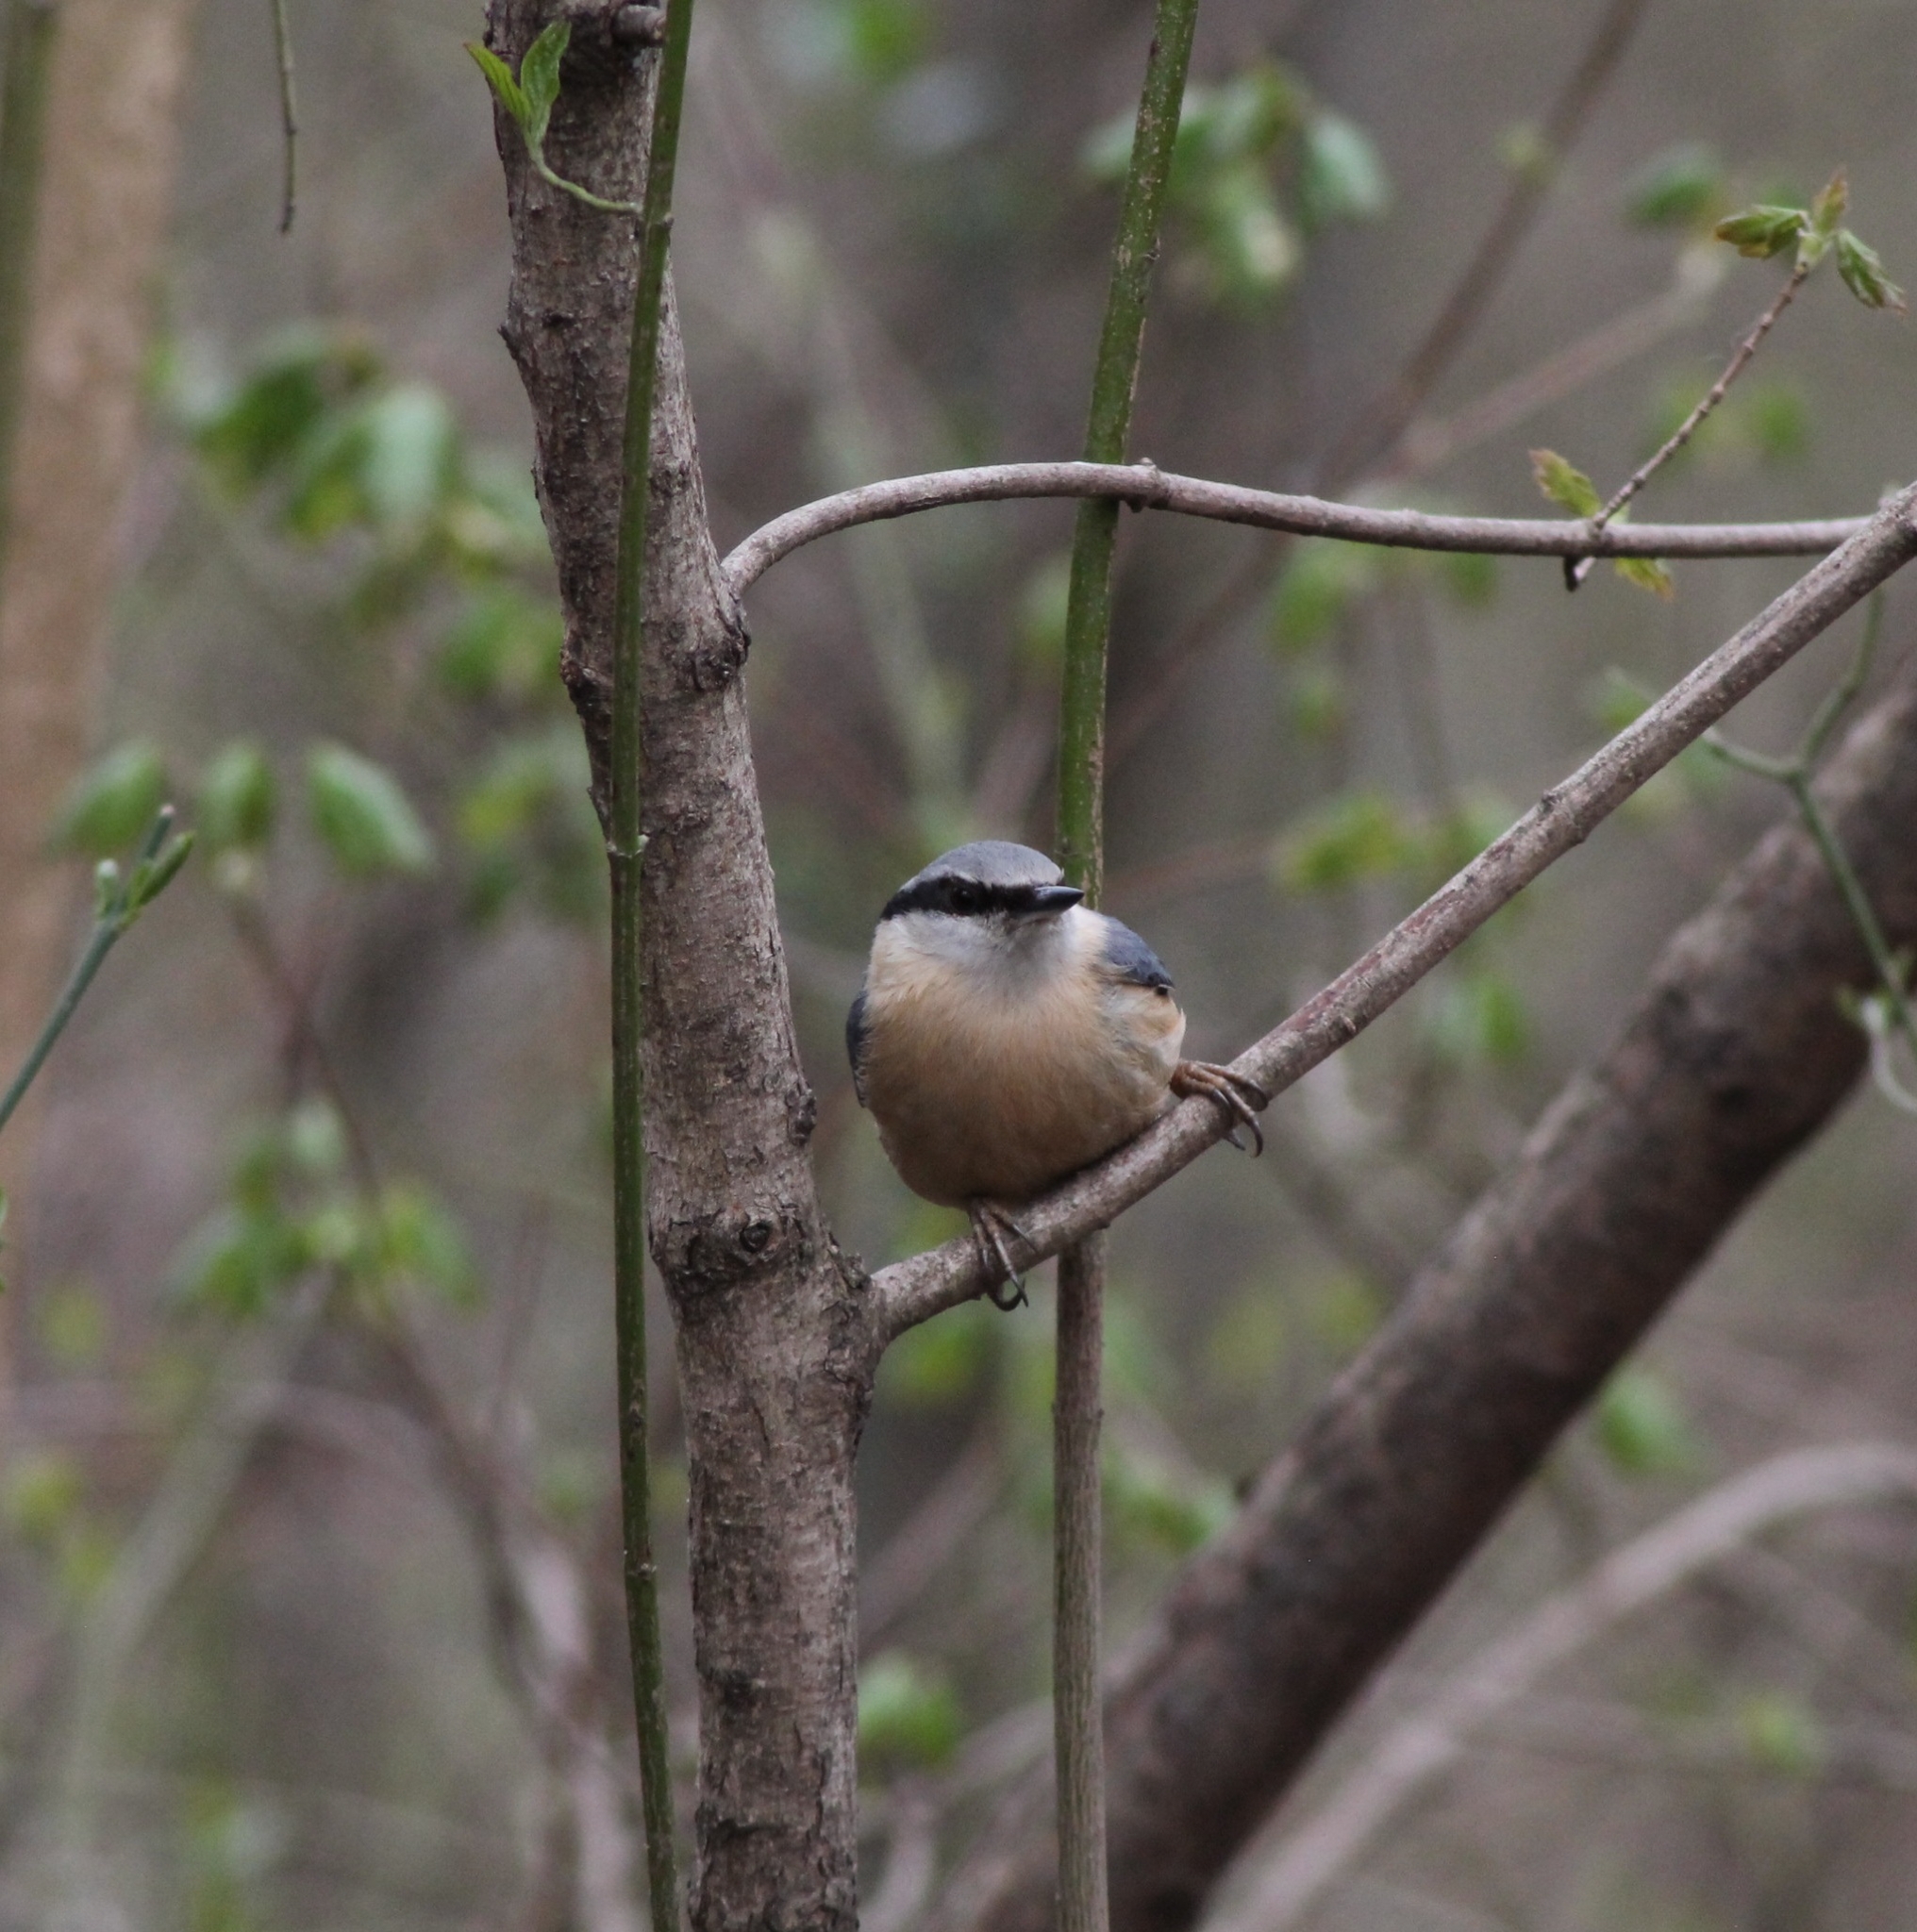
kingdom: Animalia
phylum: Chordata
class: Aves
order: Passeriformes
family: Sittidae
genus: Sitta
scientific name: Sitta europaea
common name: Eurasian nuthatch
